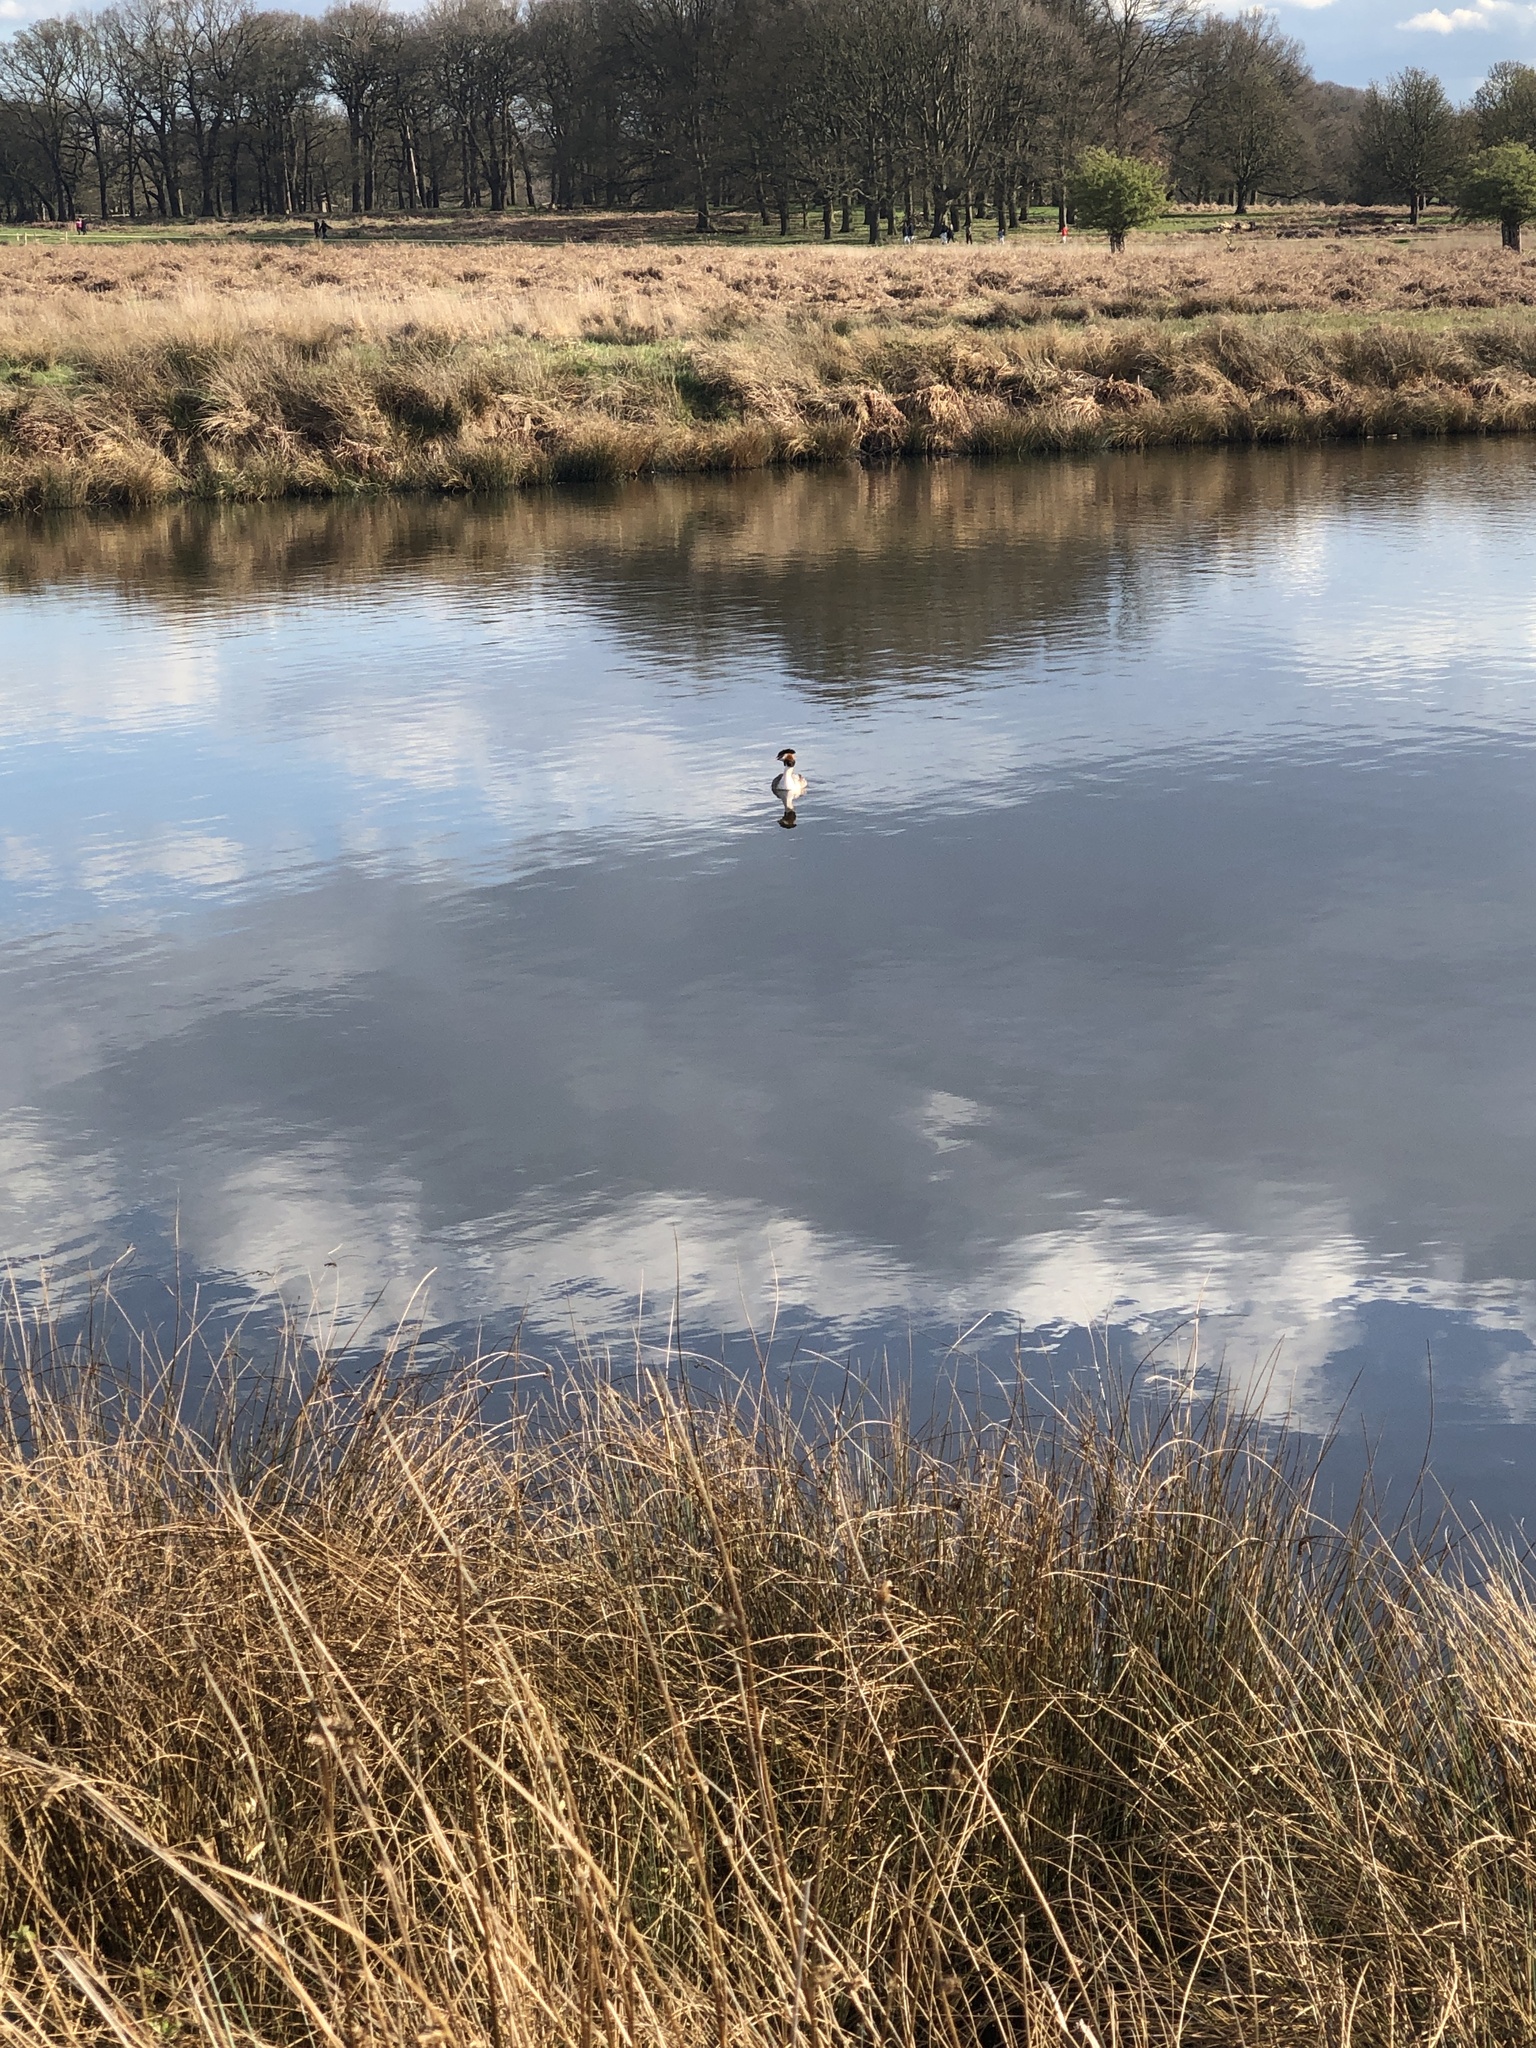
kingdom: Animalia
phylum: Chordata
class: Aves
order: Podicipediformes
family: Podicipedidae
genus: Podiceps
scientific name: Podiceps cristatus
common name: Great crested grebe
